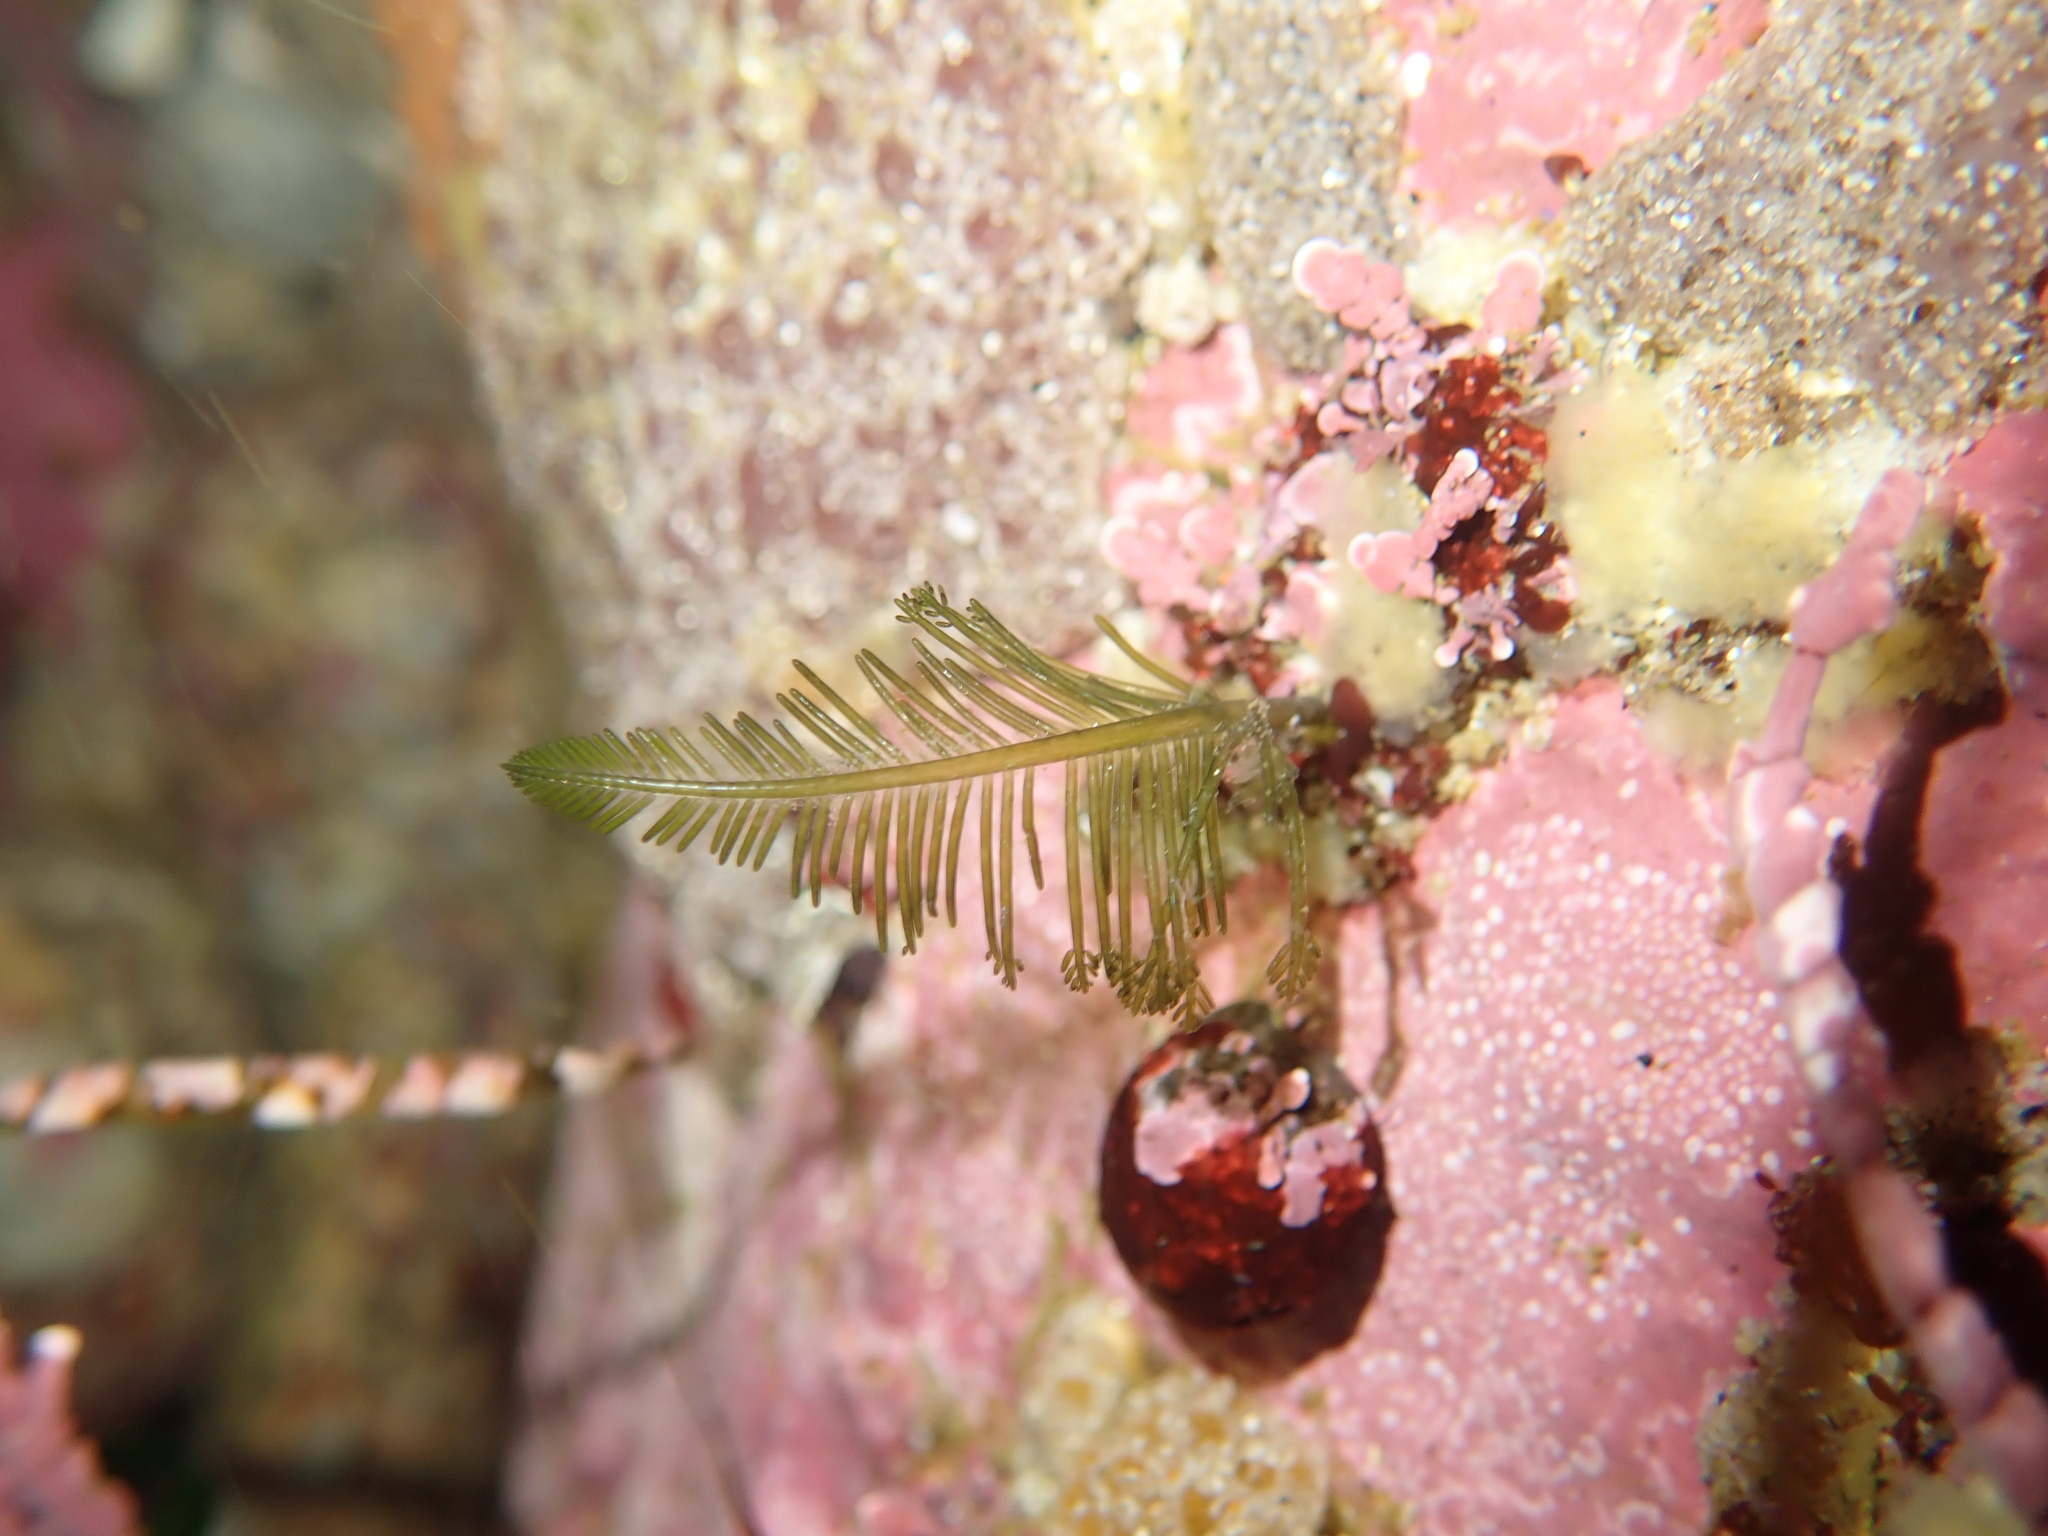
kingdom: Plantae
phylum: Chlorophyta
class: Ulvophyceae
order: Bryopsidales
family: Bryopsidaceae
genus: Bryopsis
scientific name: Bryopsis corticulans
